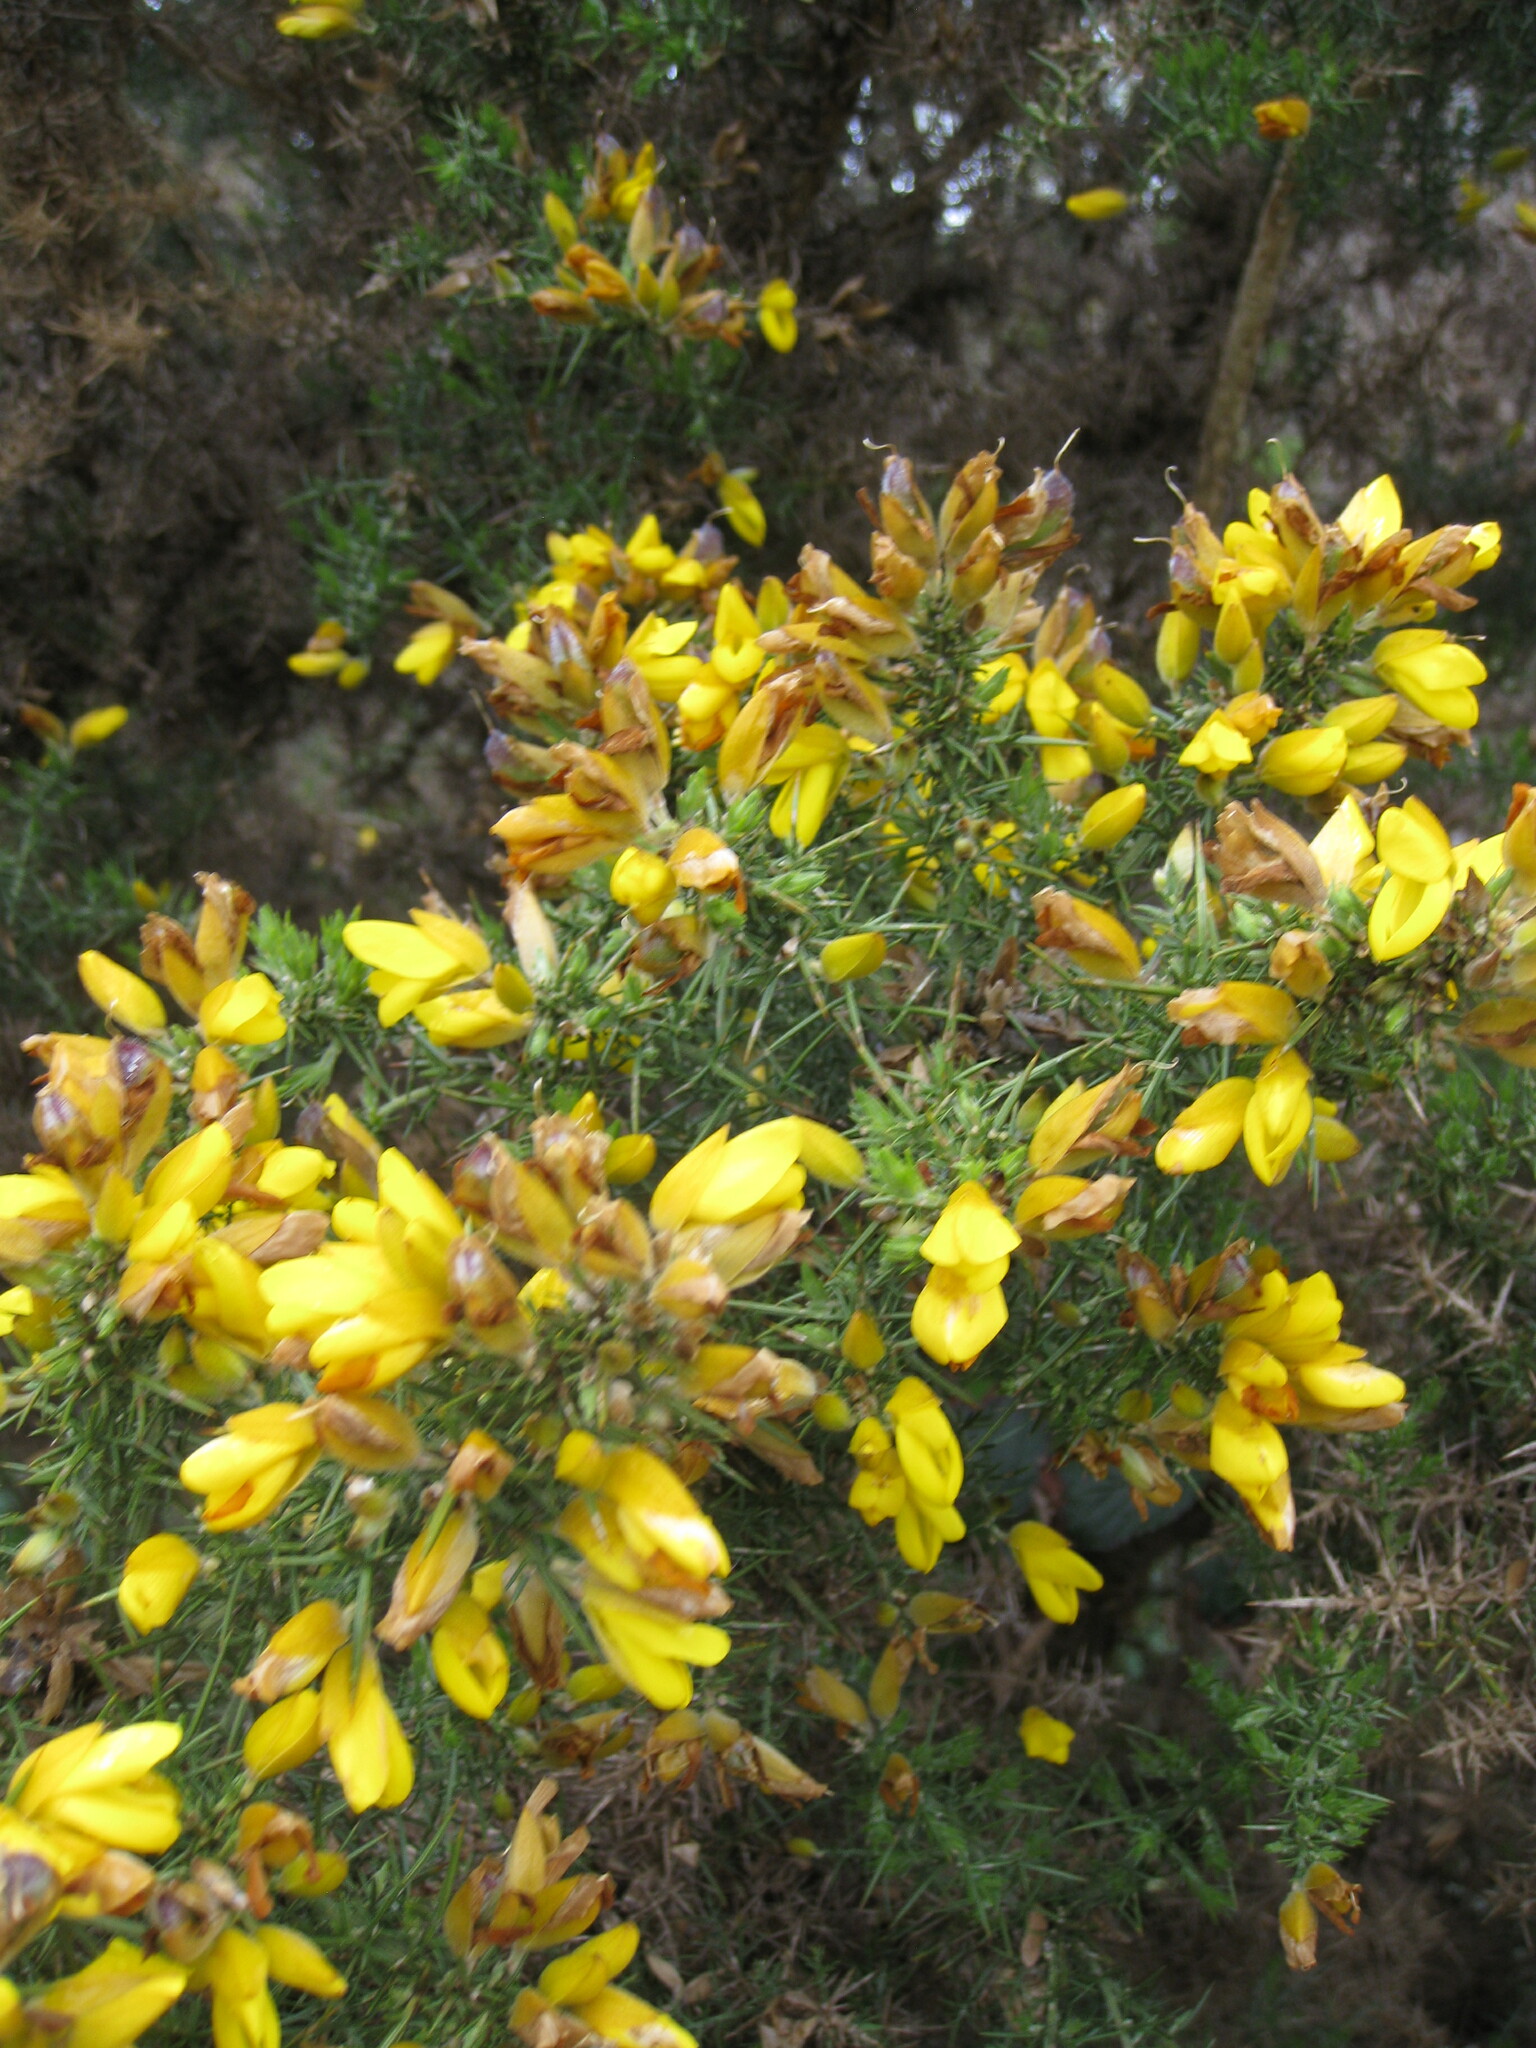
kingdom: Plantae
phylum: Tracheophyta
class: Magnoliopsida
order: Fabales
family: Fabaceae
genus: Ulex
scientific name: Ulex europaeus
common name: Common gorse
